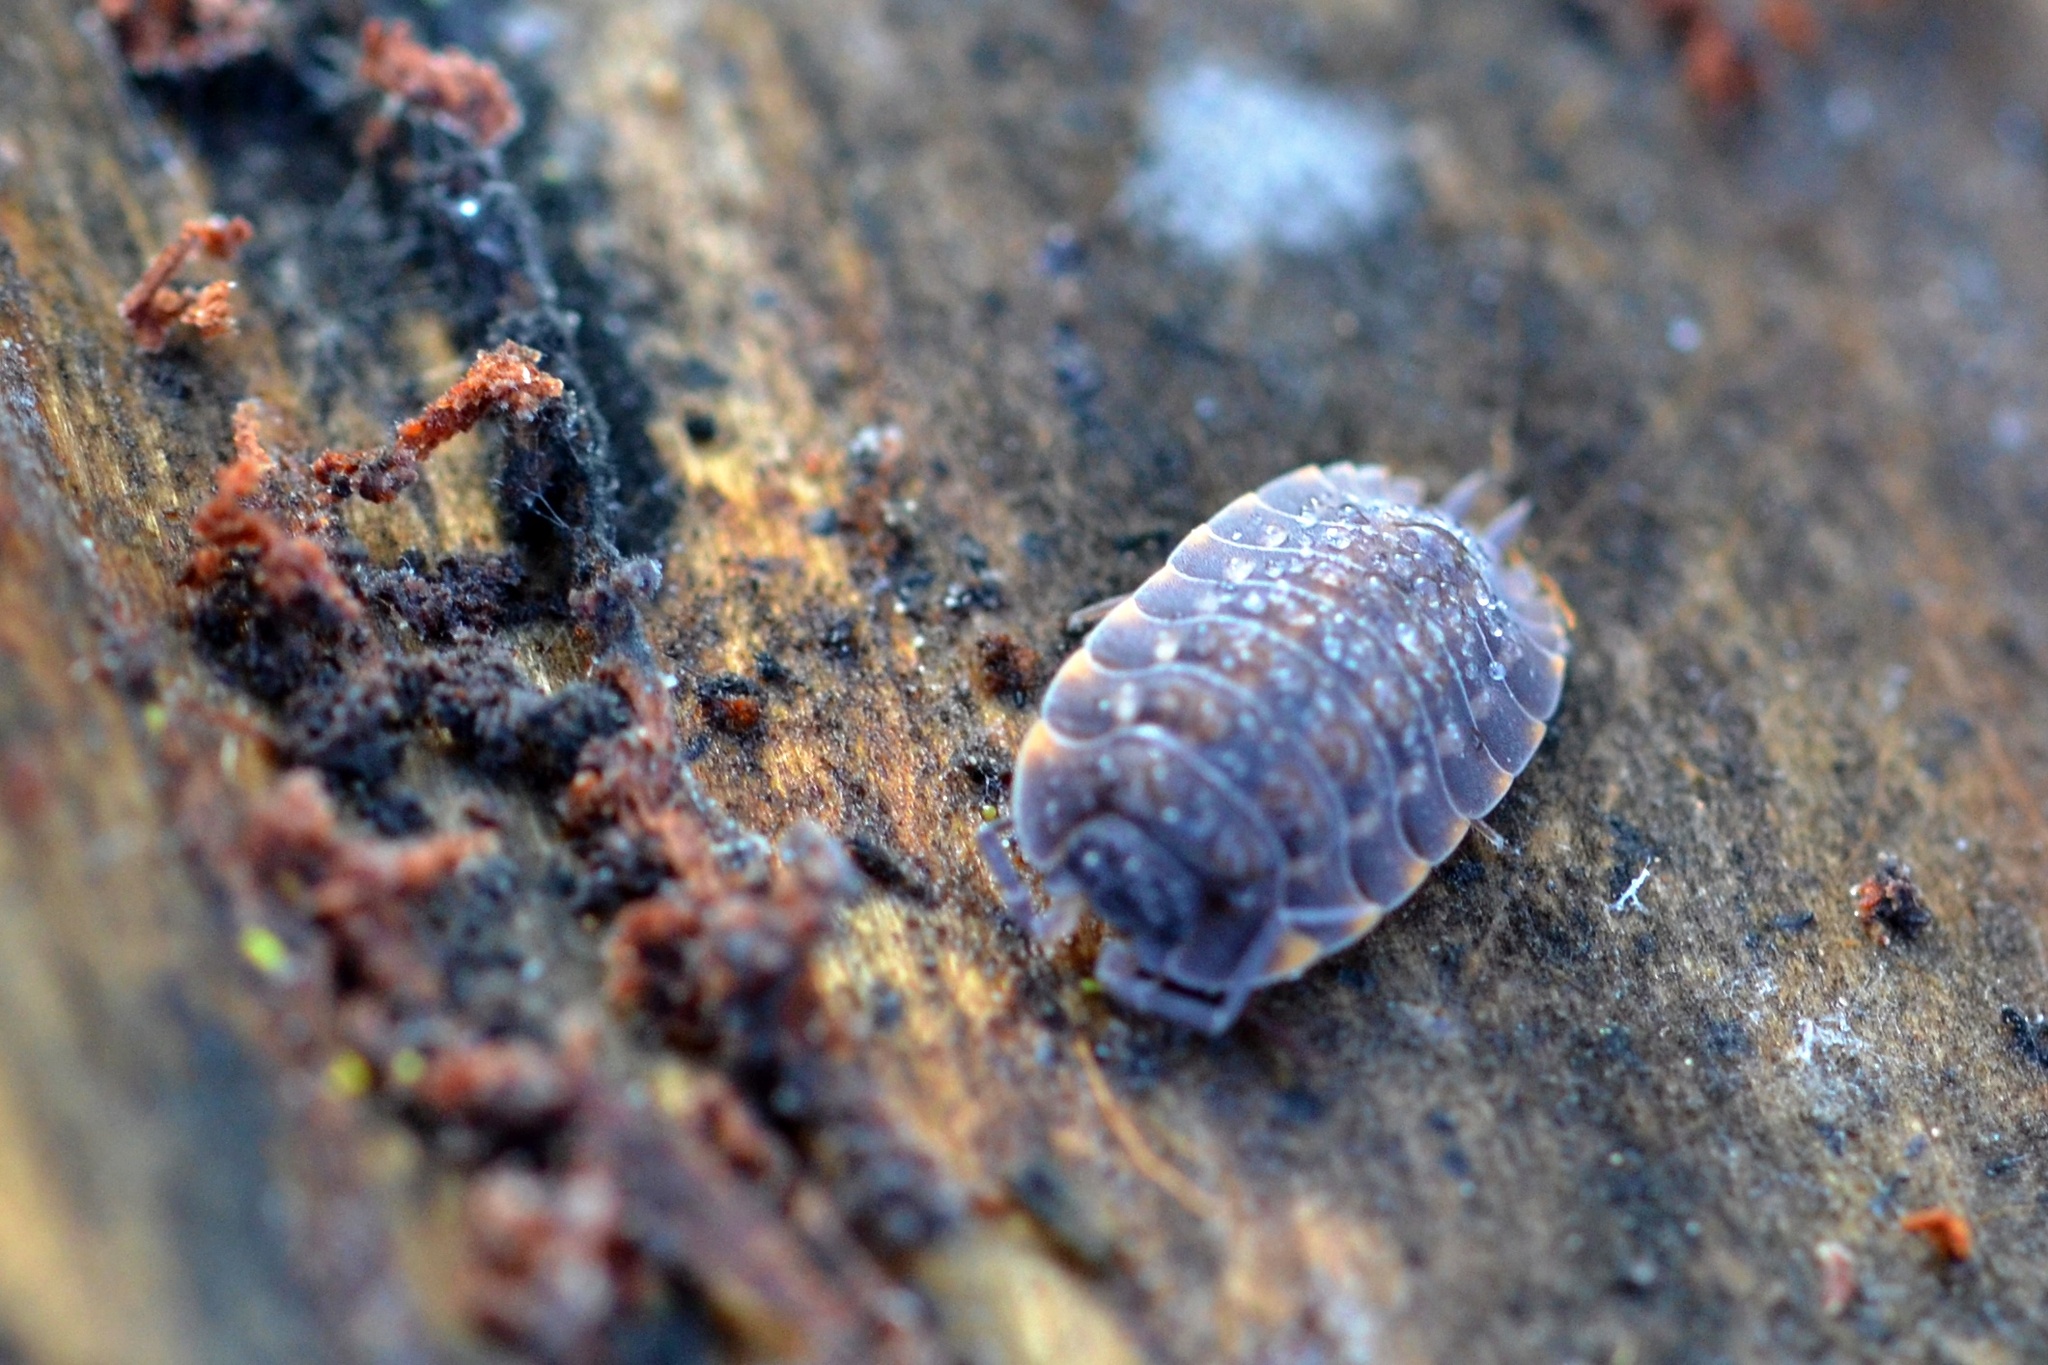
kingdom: Animalia
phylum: Arthropoda
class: Malacostraca
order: Isopoda
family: Trachelipodidae
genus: Trachelipus
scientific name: Trachelipus ratzeburgii
